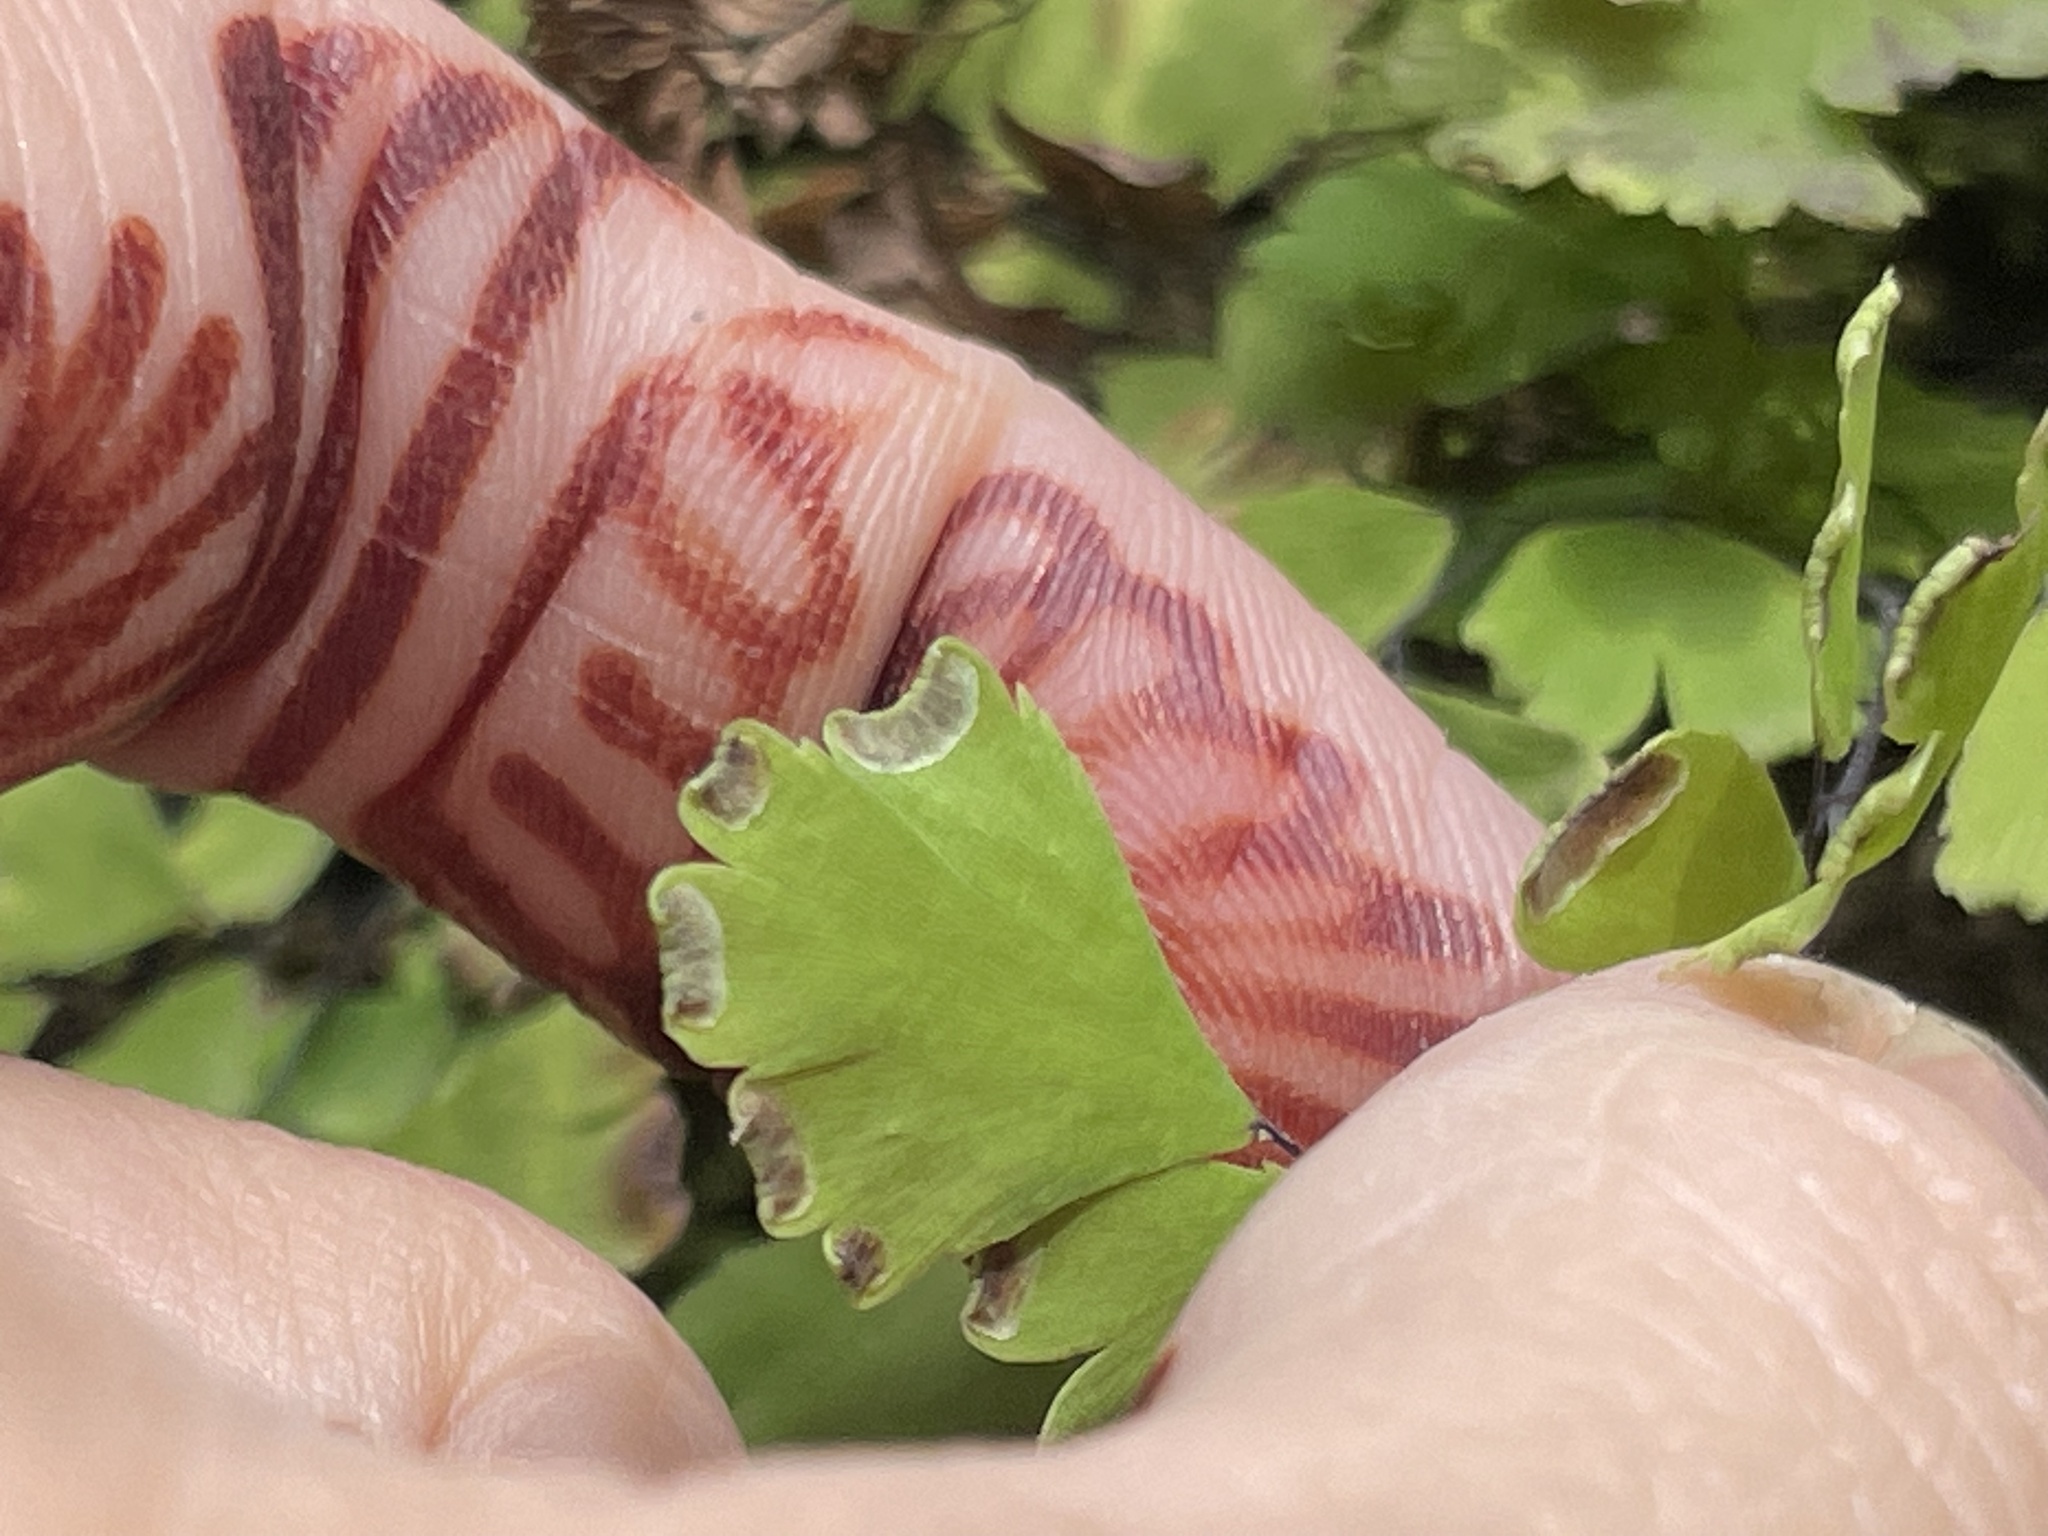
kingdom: Plantae
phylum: Tracheophyta
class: Polypodiopsida
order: Polypodiales
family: Pteridaceae
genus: Adiantum
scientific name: Adiantum capillus-veneris
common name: Maidenhair fern
